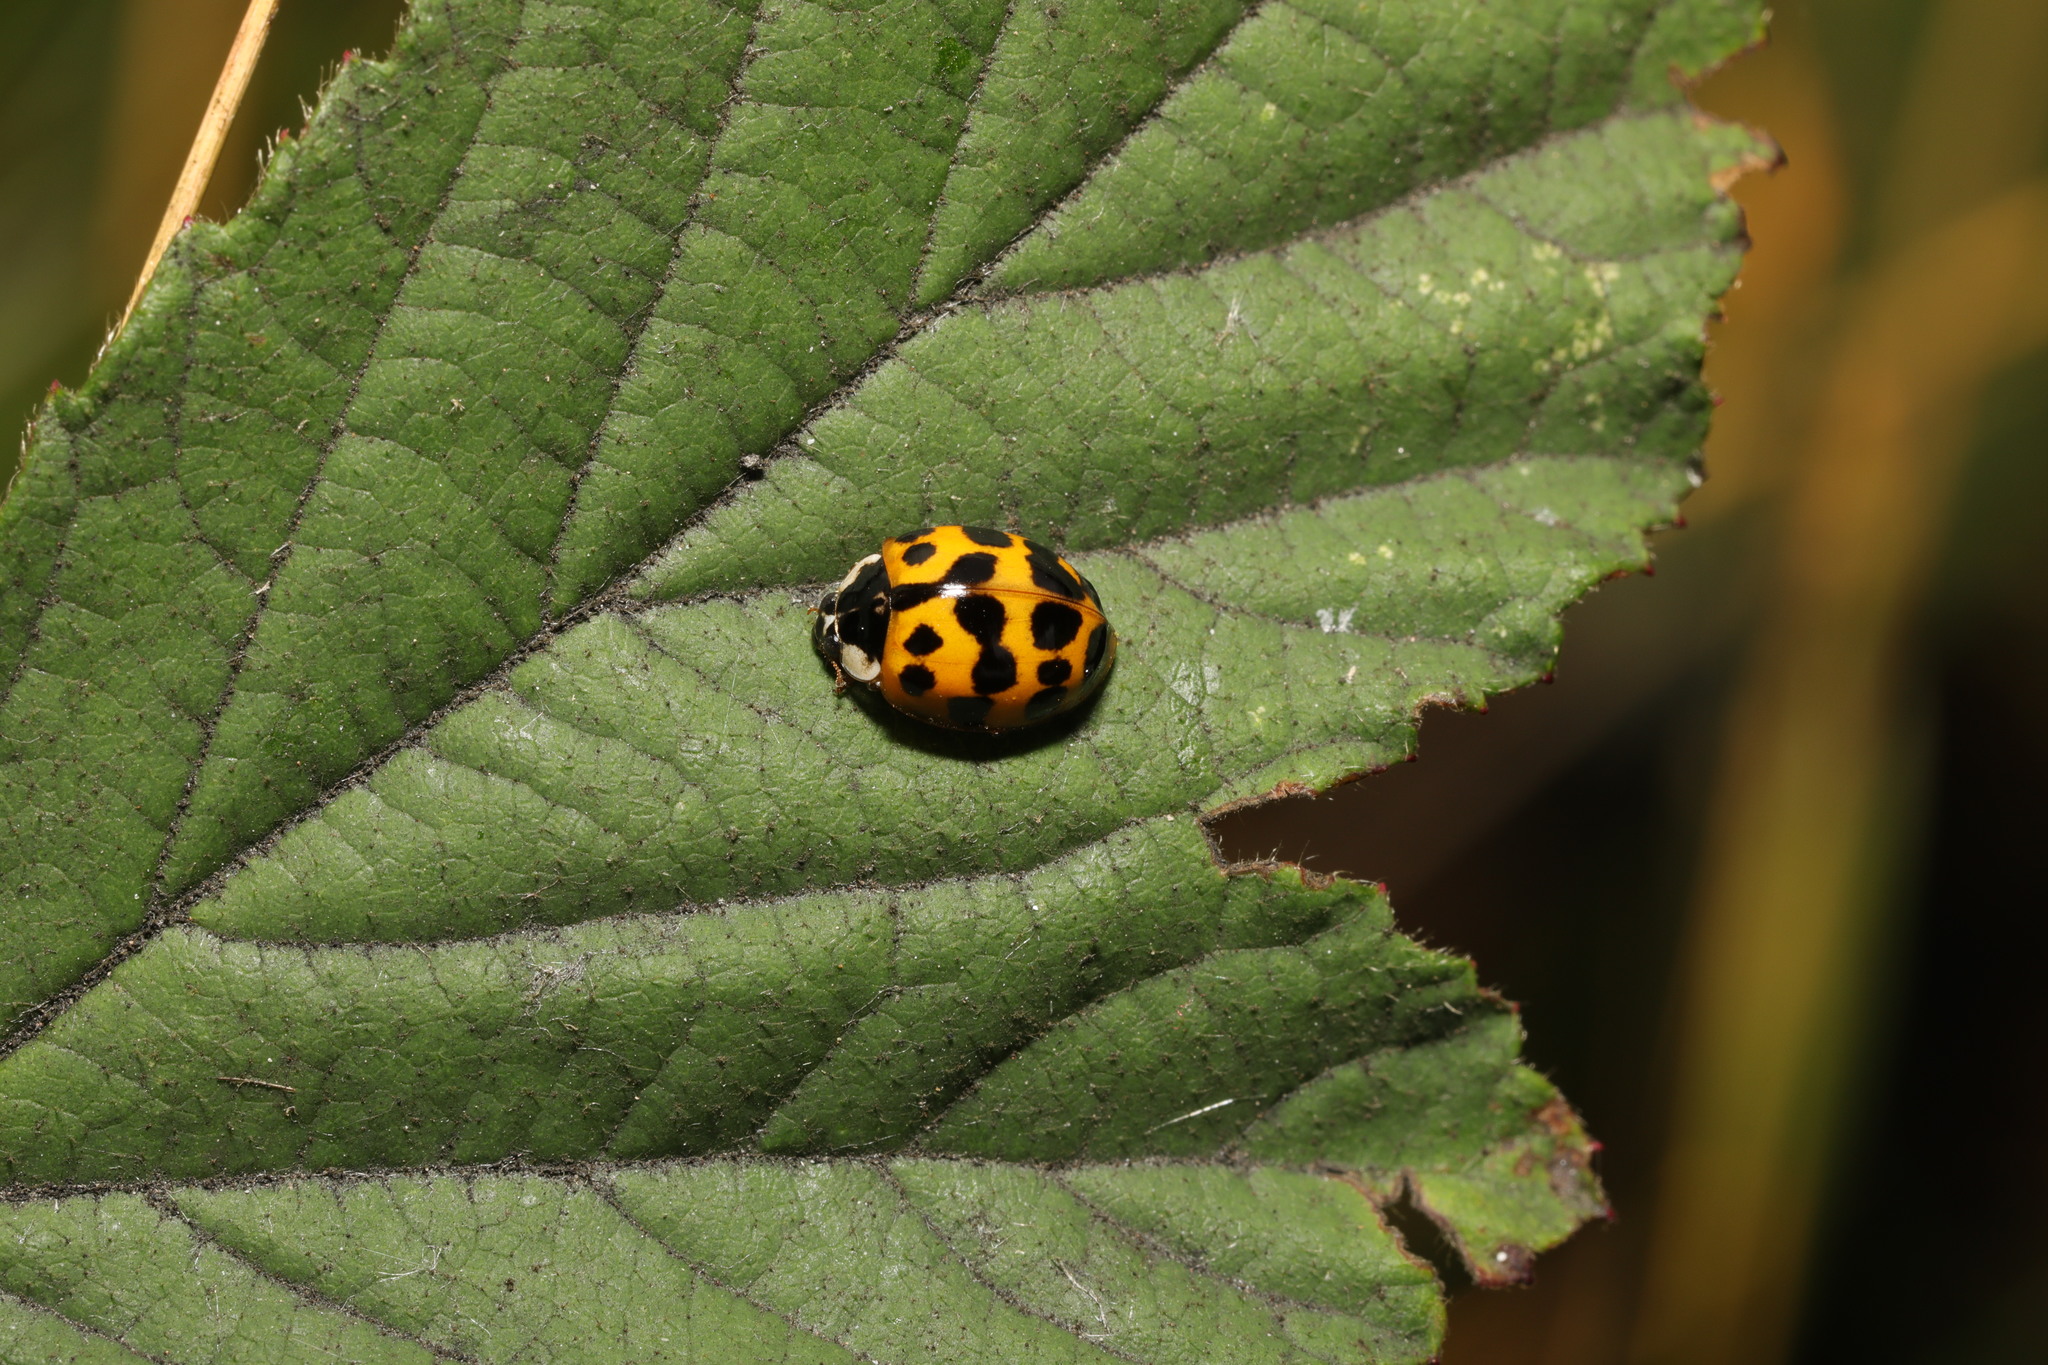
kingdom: Animalia
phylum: Arthropoda
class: Insecta
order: Coleoptera
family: Coccinellidae
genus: Harmonia
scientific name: Harmonia axyridis
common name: Harlequin ladybird
